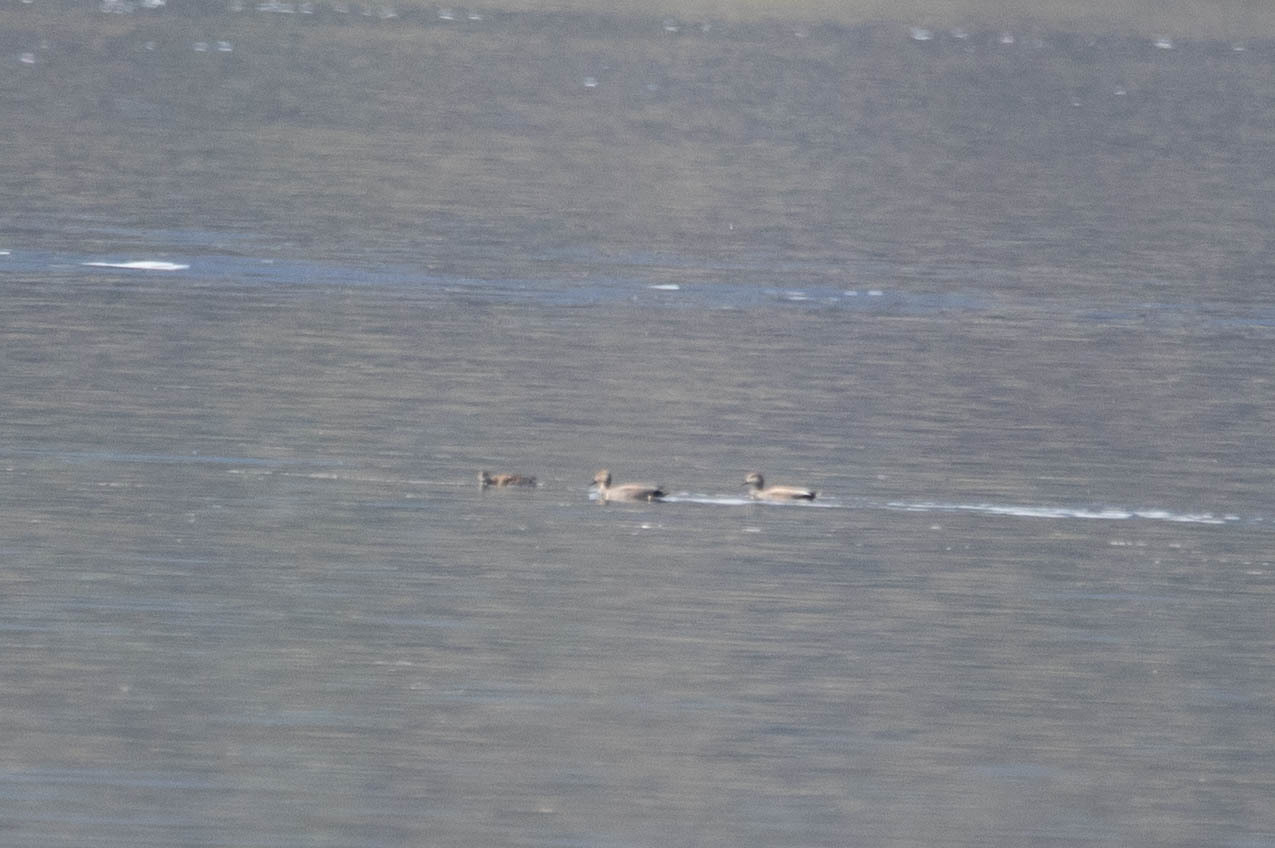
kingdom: Animalia
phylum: Chordata
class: Aves
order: Anseriformes
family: Anatidae
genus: Mareca
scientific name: Mareca strepera
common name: Gadwall
